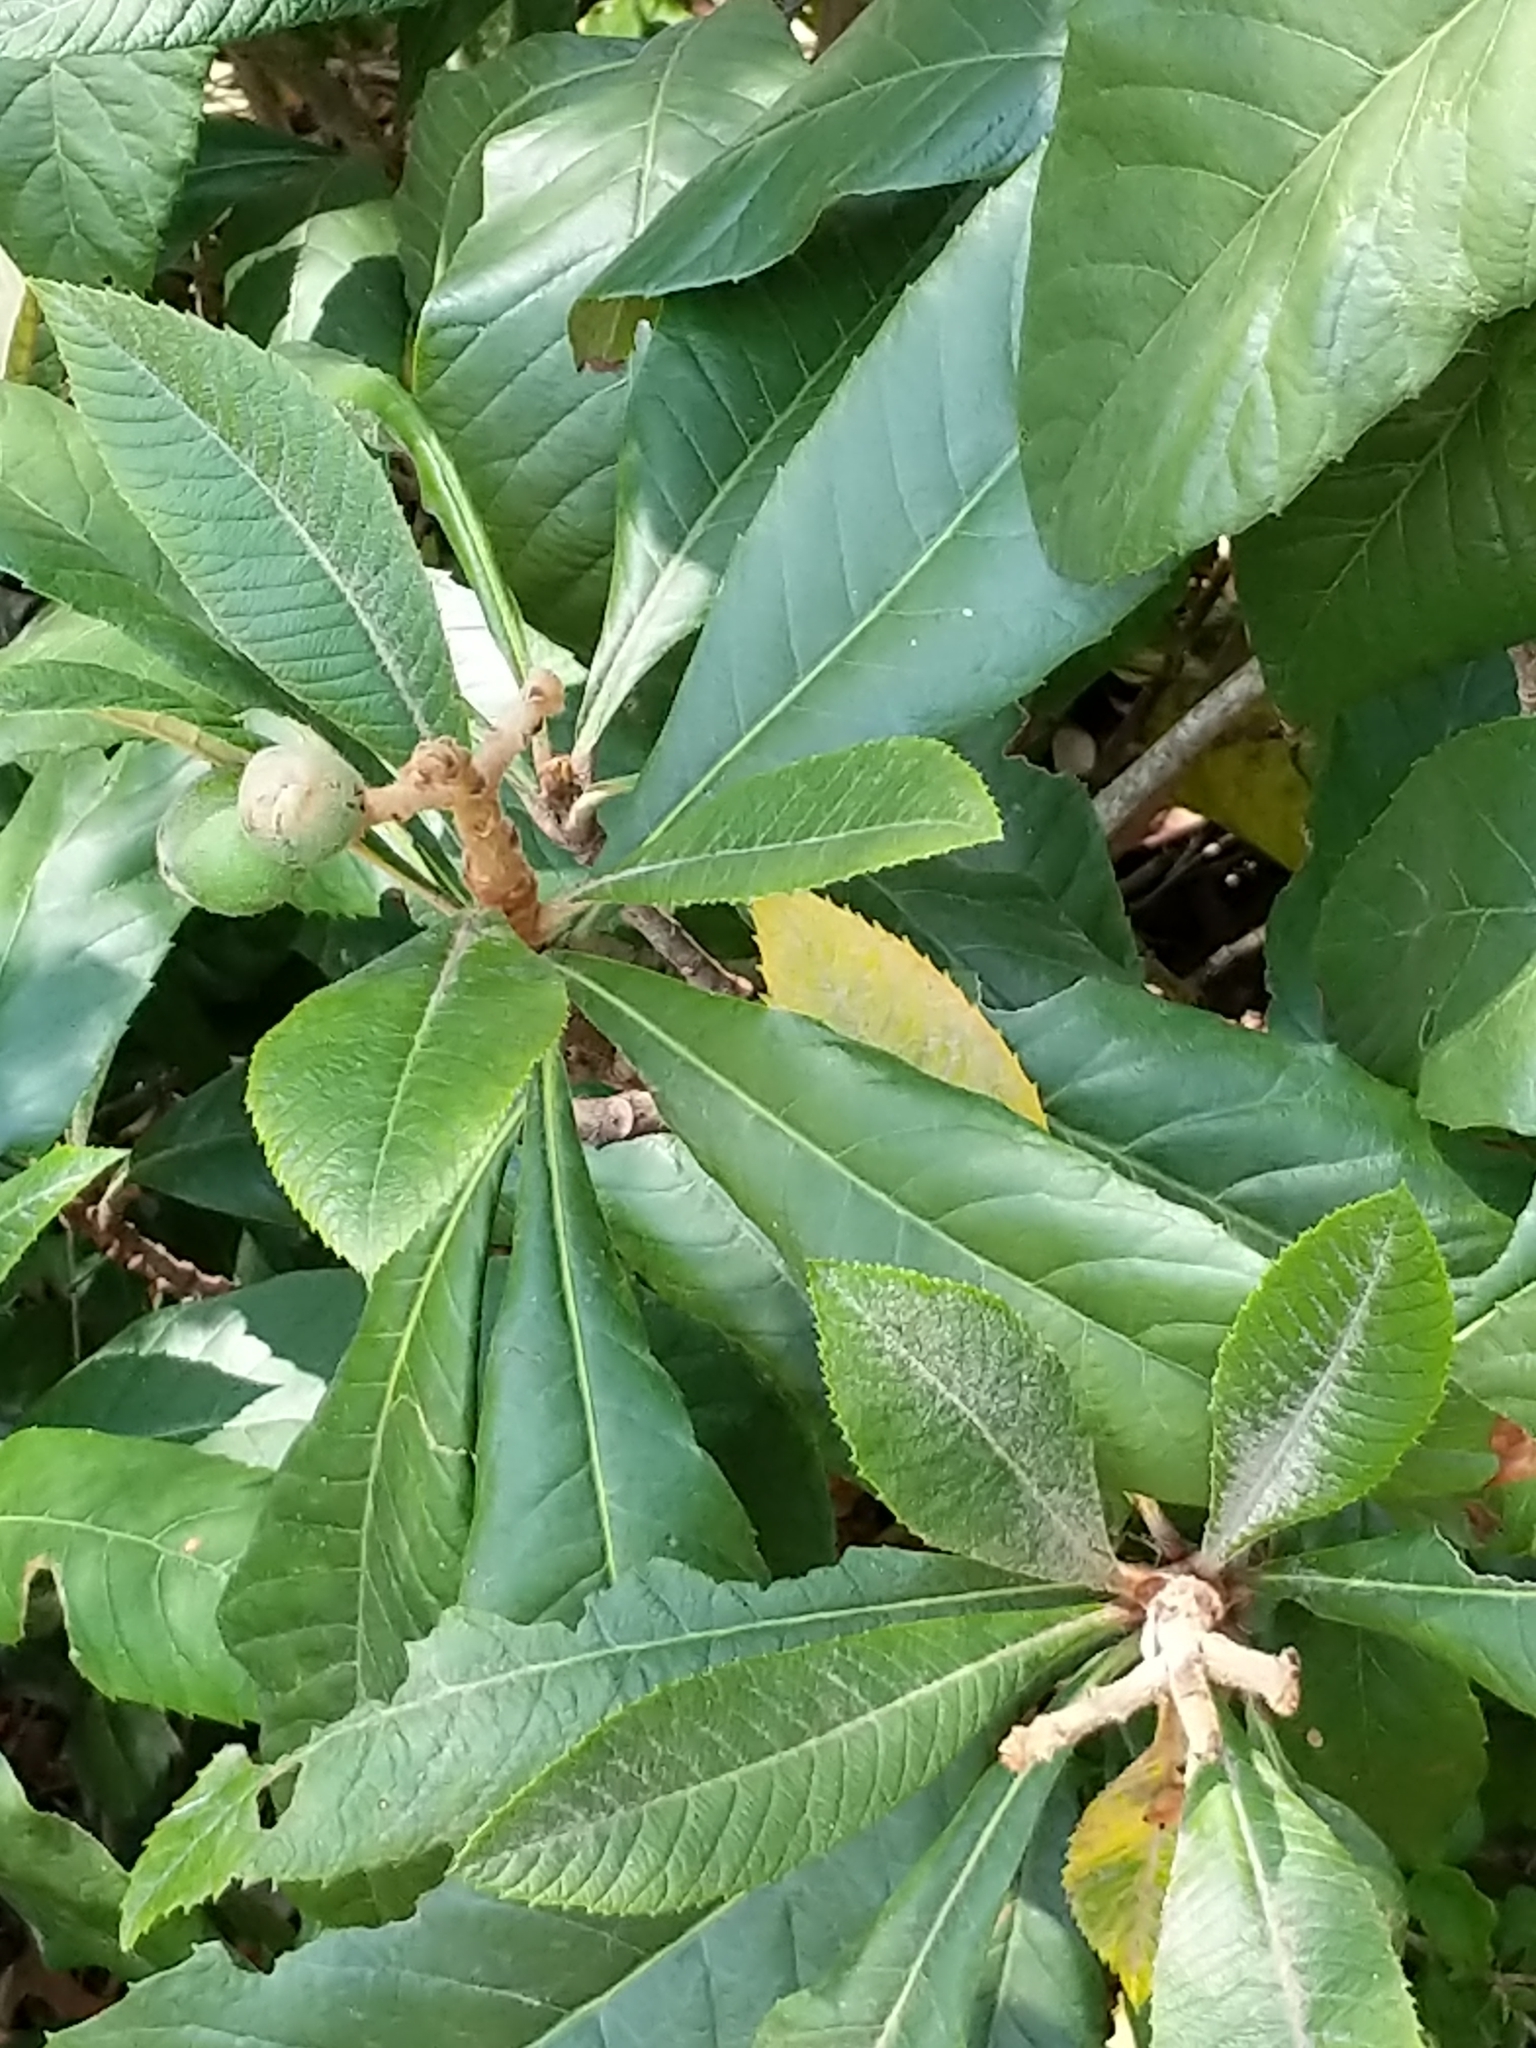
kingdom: Plantae
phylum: Tracheophyta
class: Magnoliopsida
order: Rosales
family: Rosaceae
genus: Rhaphiolepis
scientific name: Rhaphiolepis bibas
